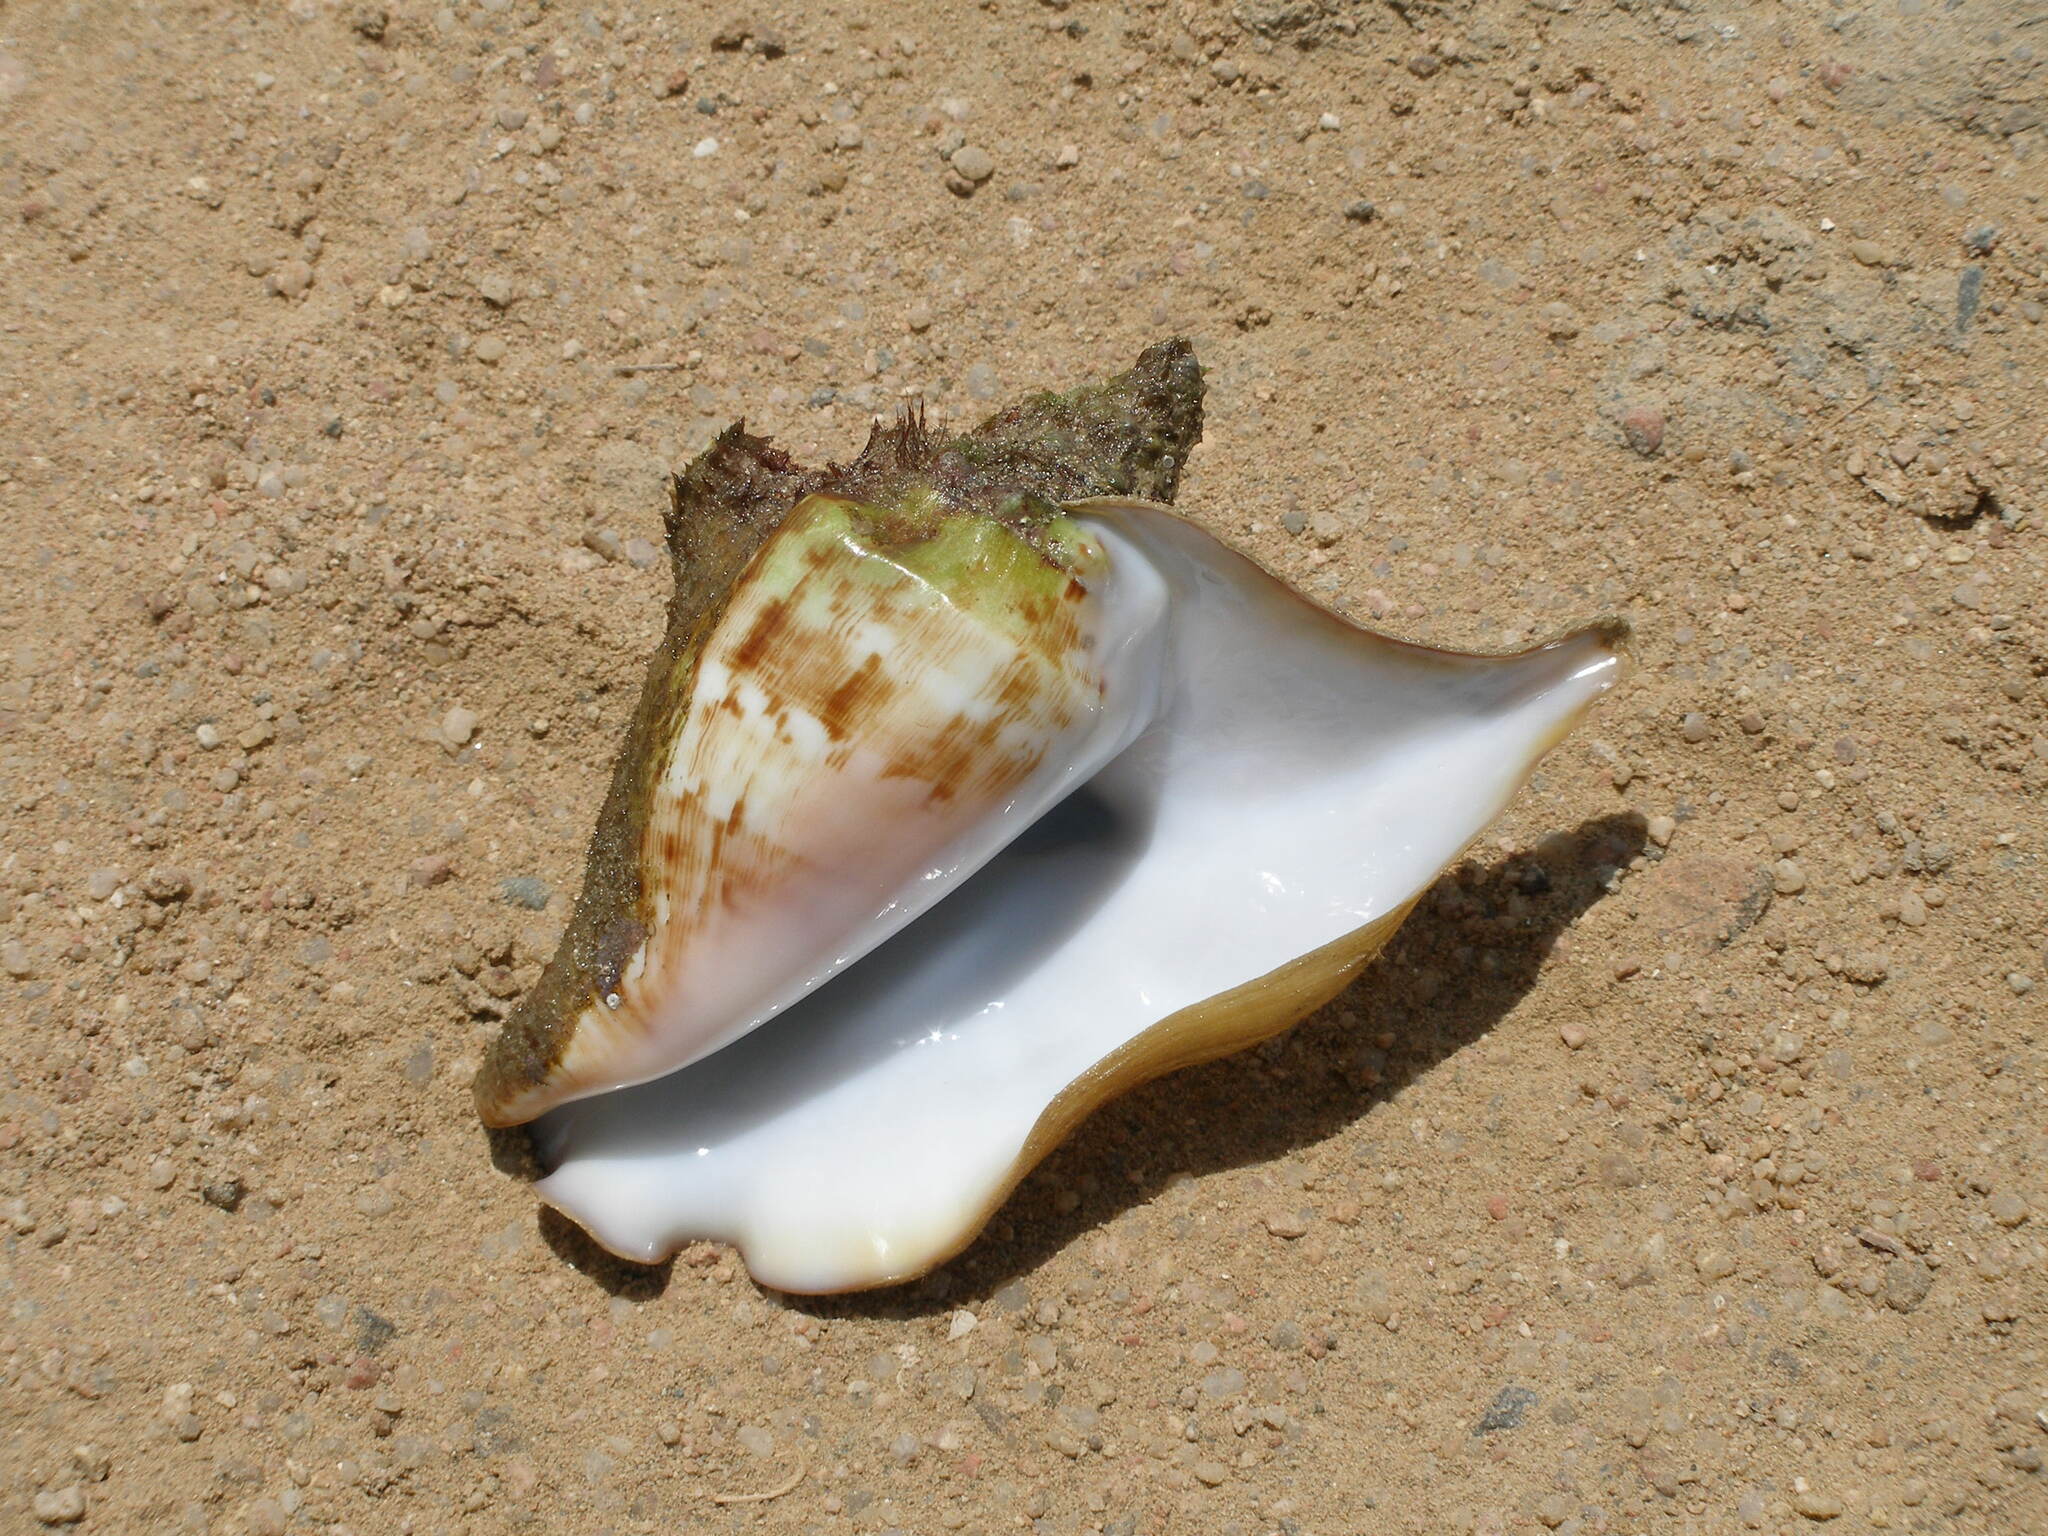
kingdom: Animalia
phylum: Mollusca
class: Gastropoda
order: Littorinimorpha
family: Strombidae
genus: Tricornis
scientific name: Tricornis tricornis
